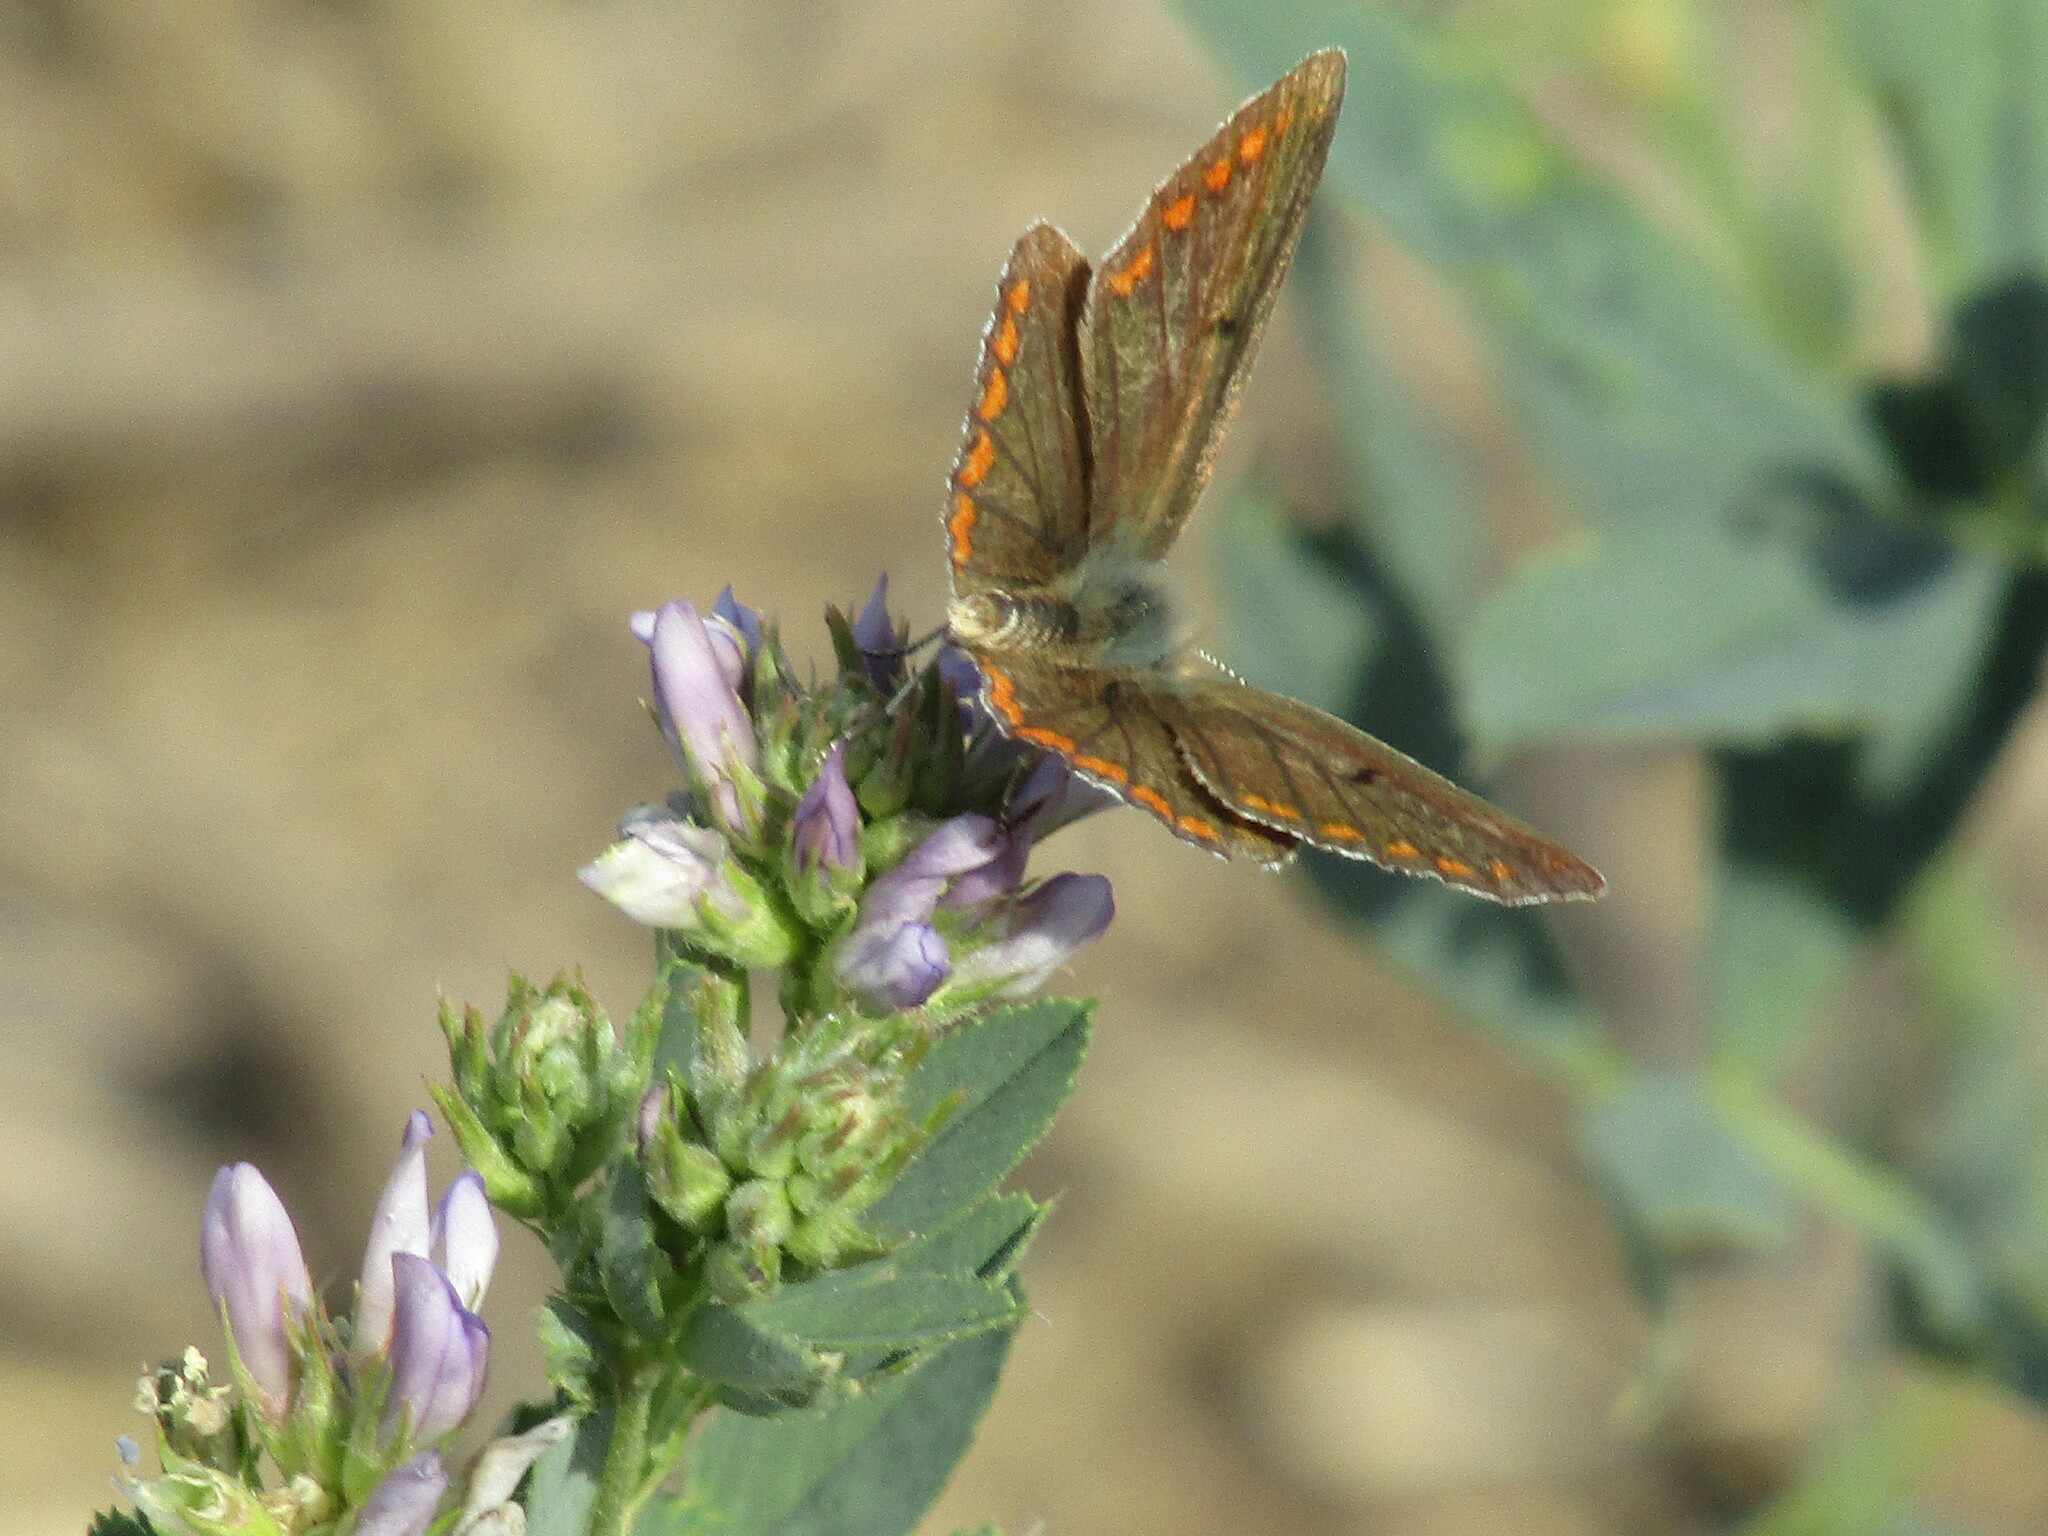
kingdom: Animalia
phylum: Arthropoda
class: Insecta
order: Lepidoptera
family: Lycaenidae
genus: Aricia
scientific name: Aricia agestis
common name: Brown argus
